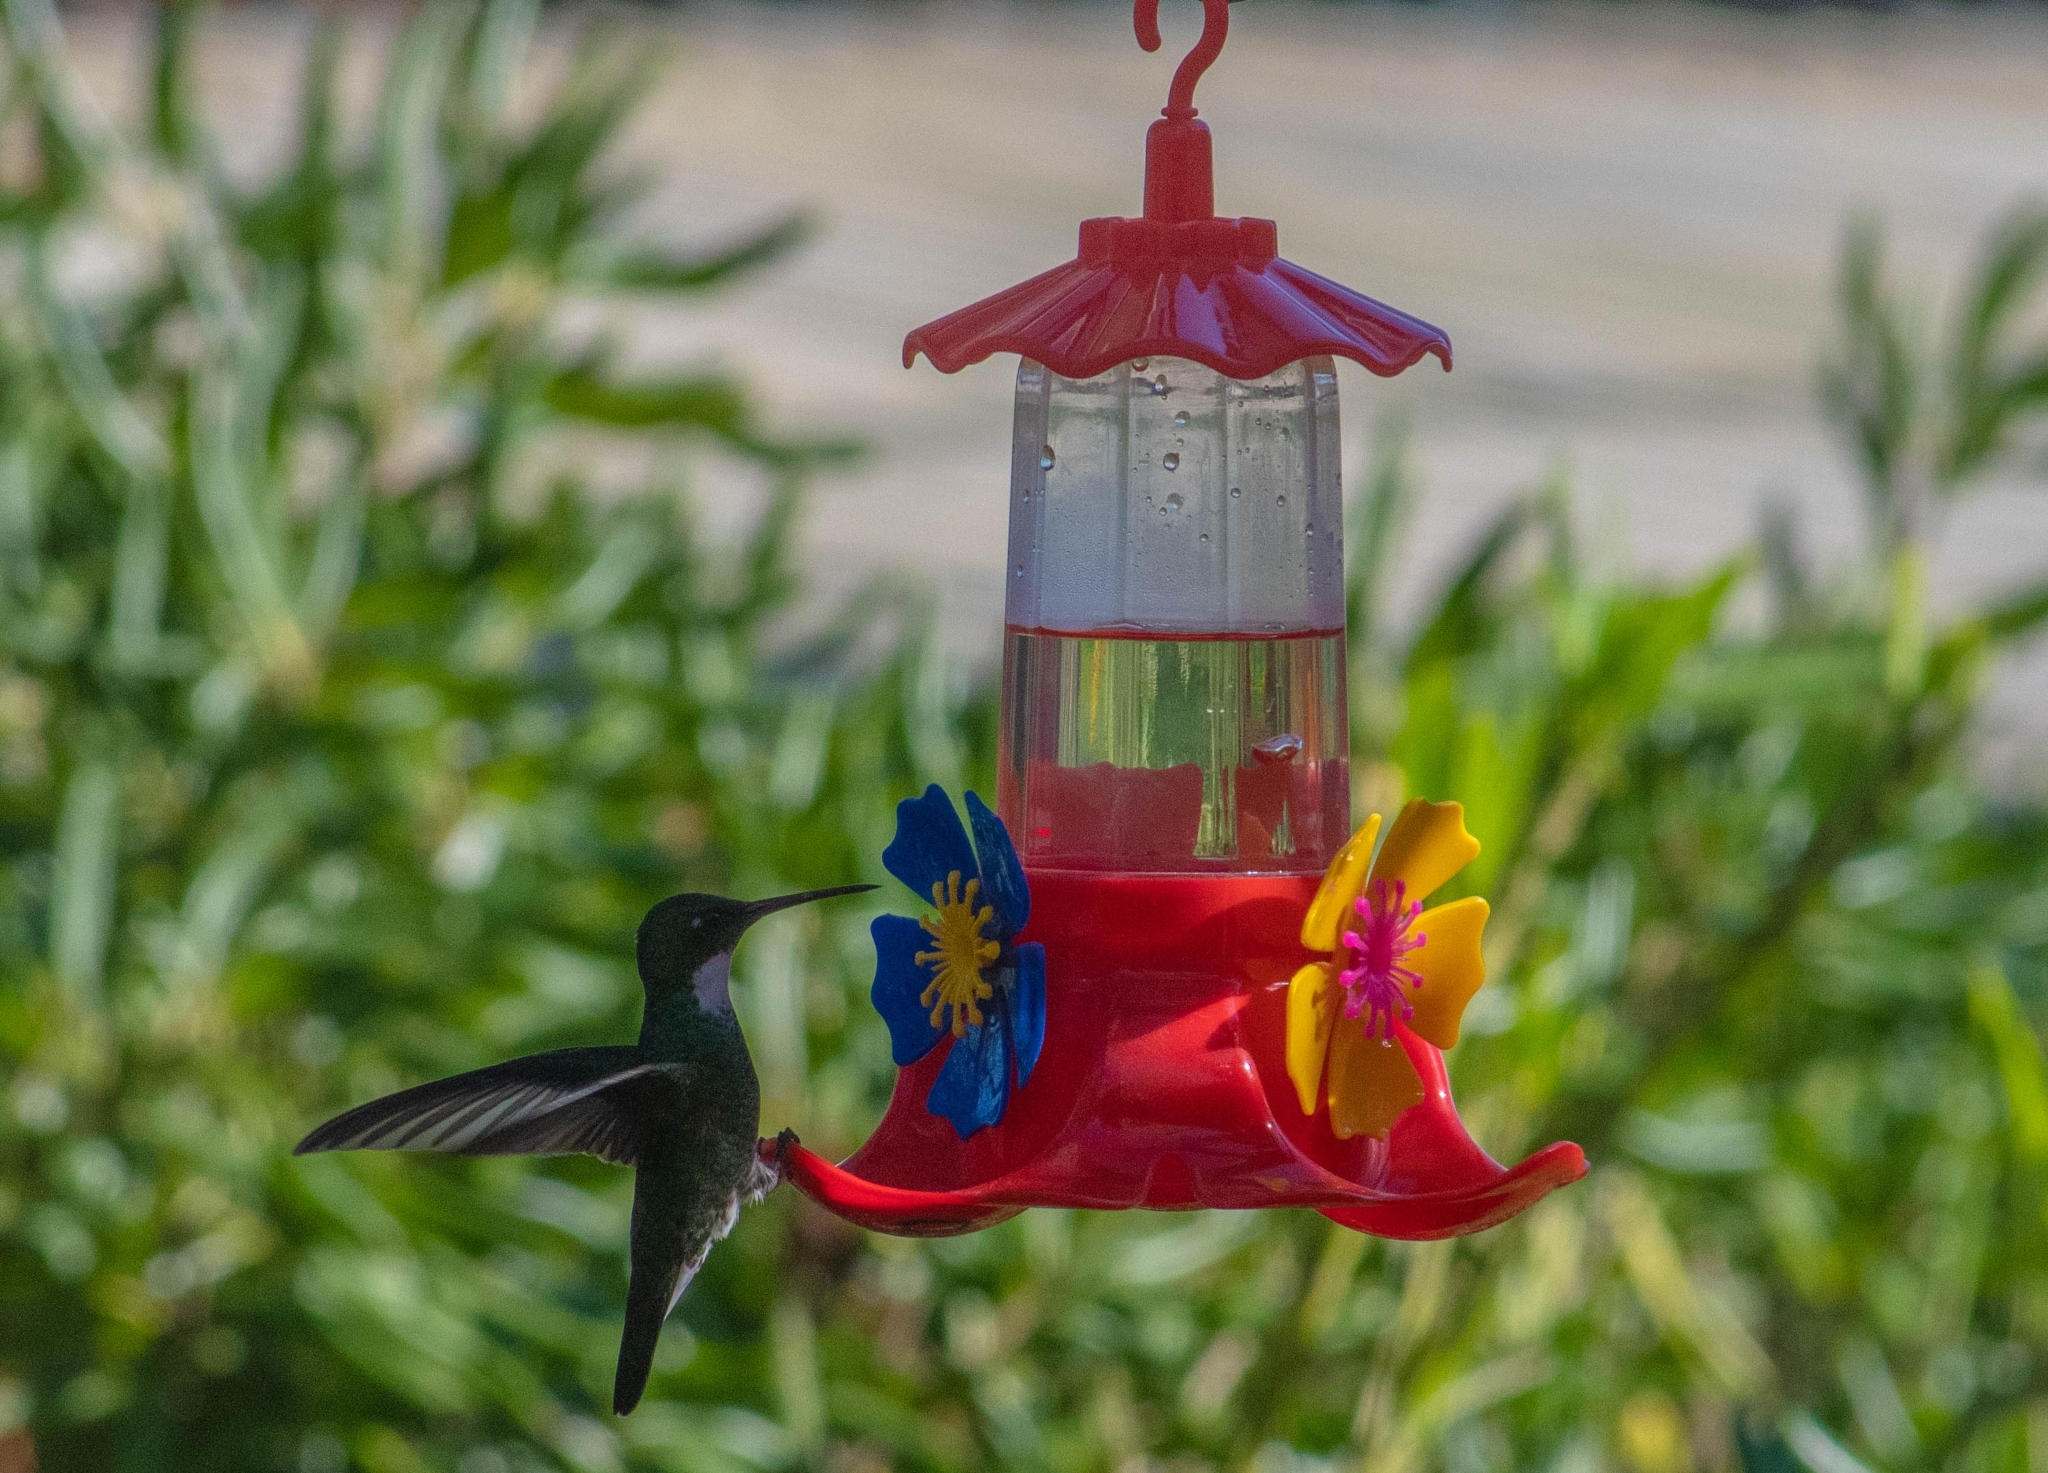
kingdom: Animalia
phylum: Chordata
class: Aves
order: Apodiformes
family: Trochilidae
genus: Leucochloris
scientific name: Leucochloris albicollis
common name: White-throated hummingbird
